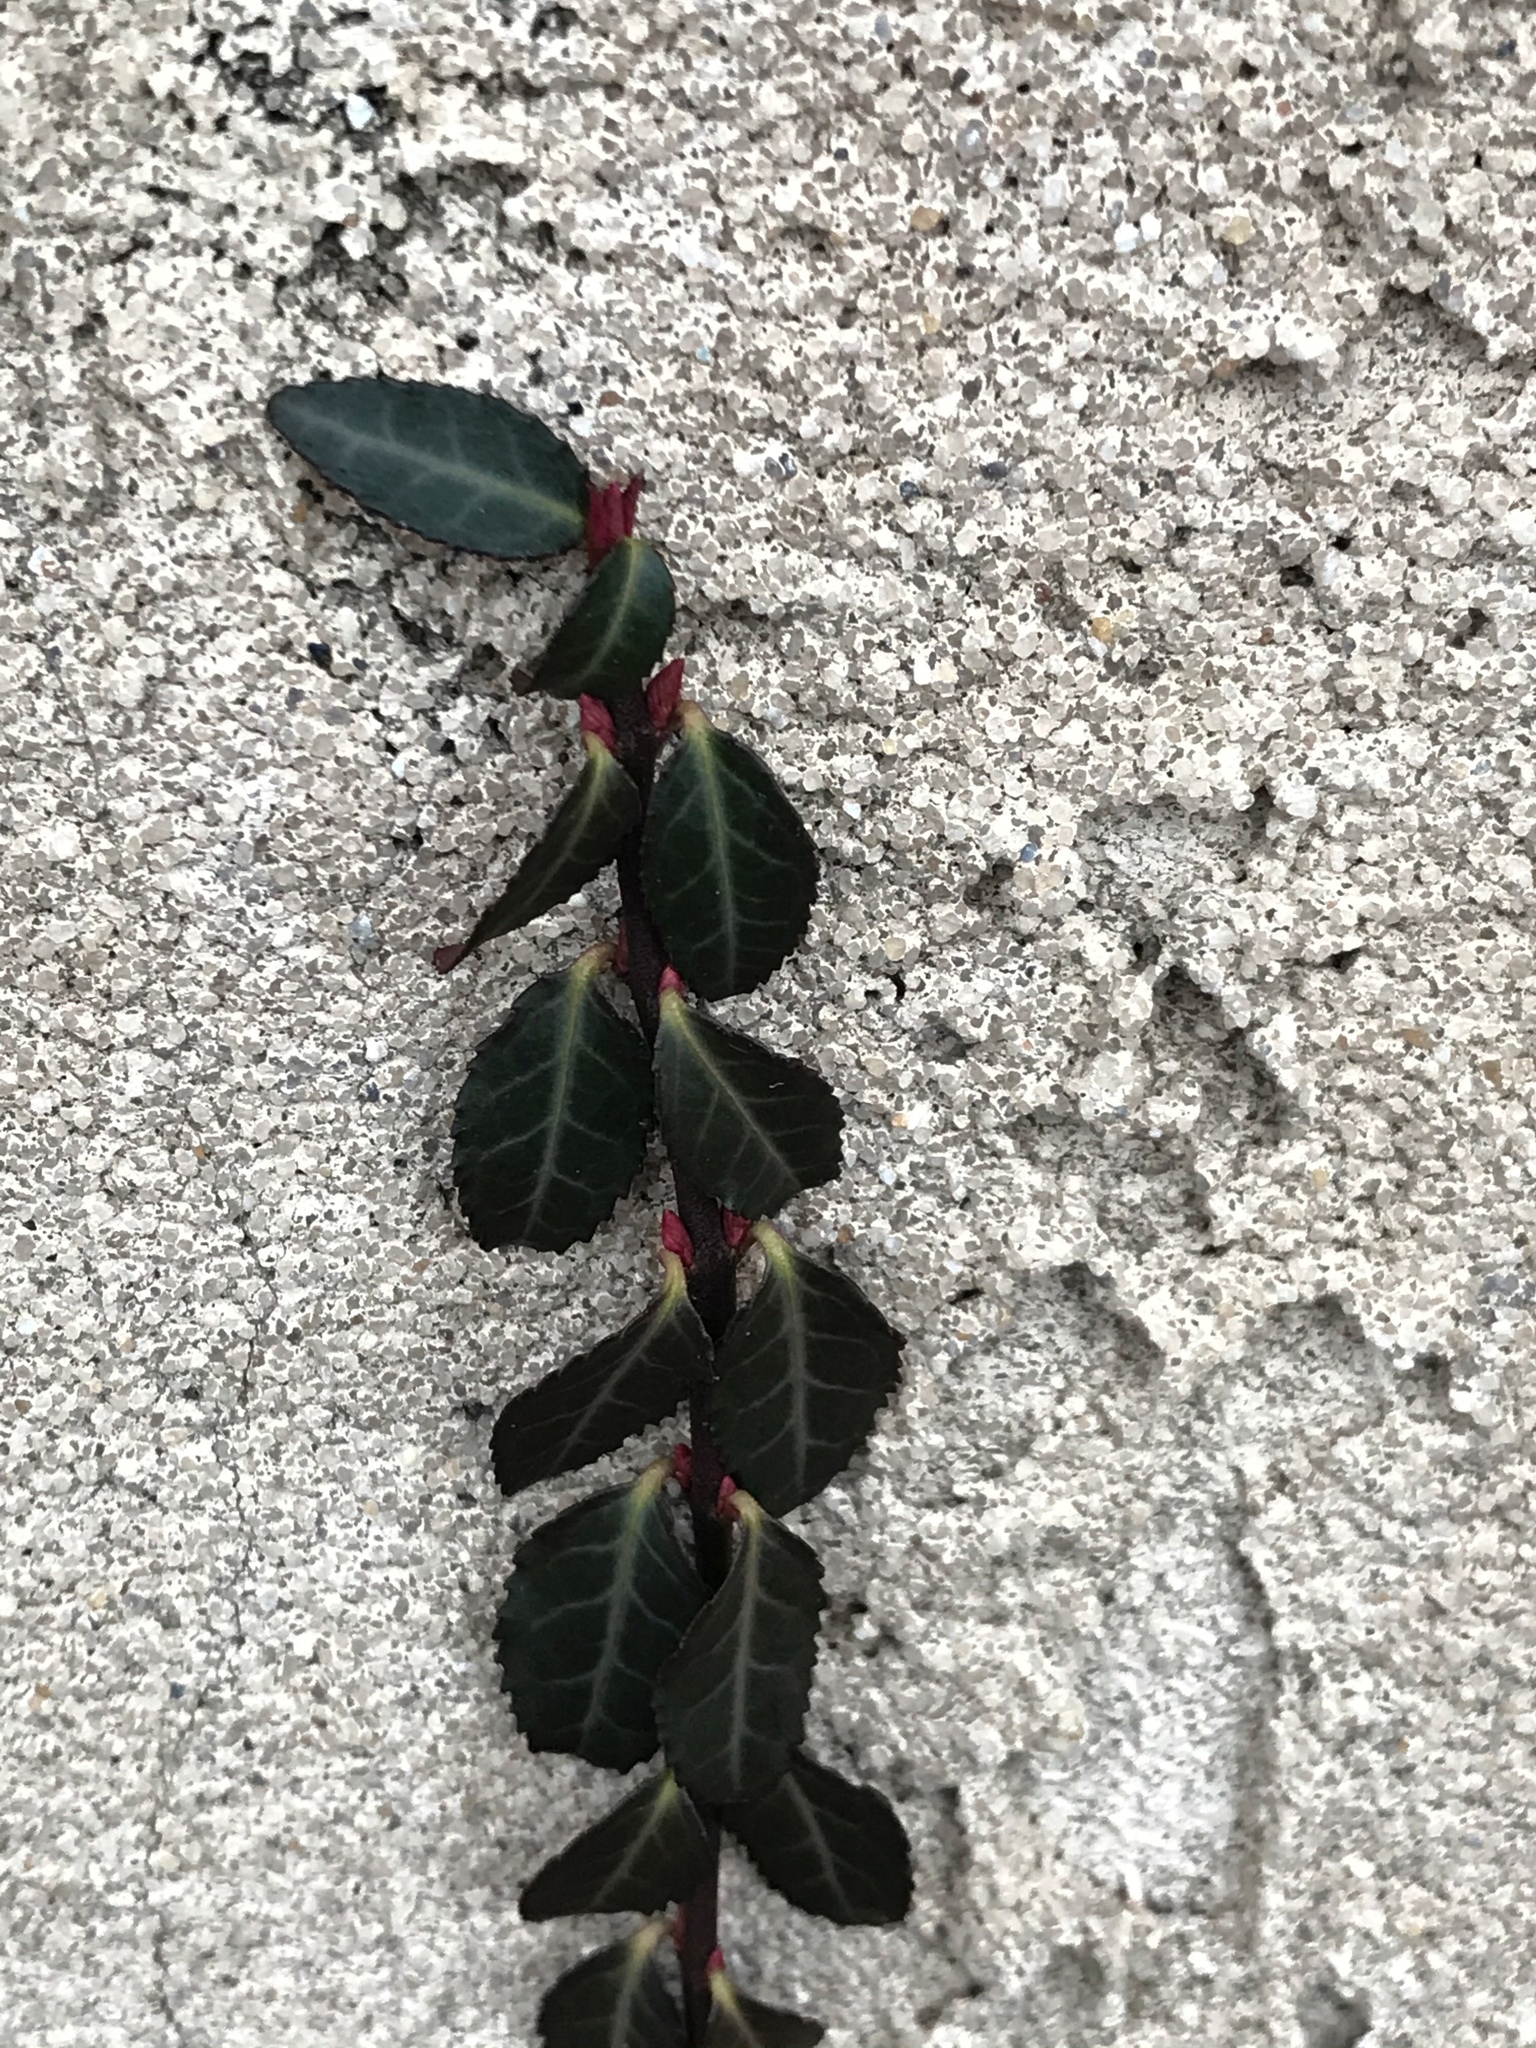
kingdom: Plantae
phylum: Tracheophyta
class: Magnoliopsida
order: Celastrales
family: Celastraceae
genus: Euonymus
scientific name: Euonymus fortunei
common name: Climbing euonymus
